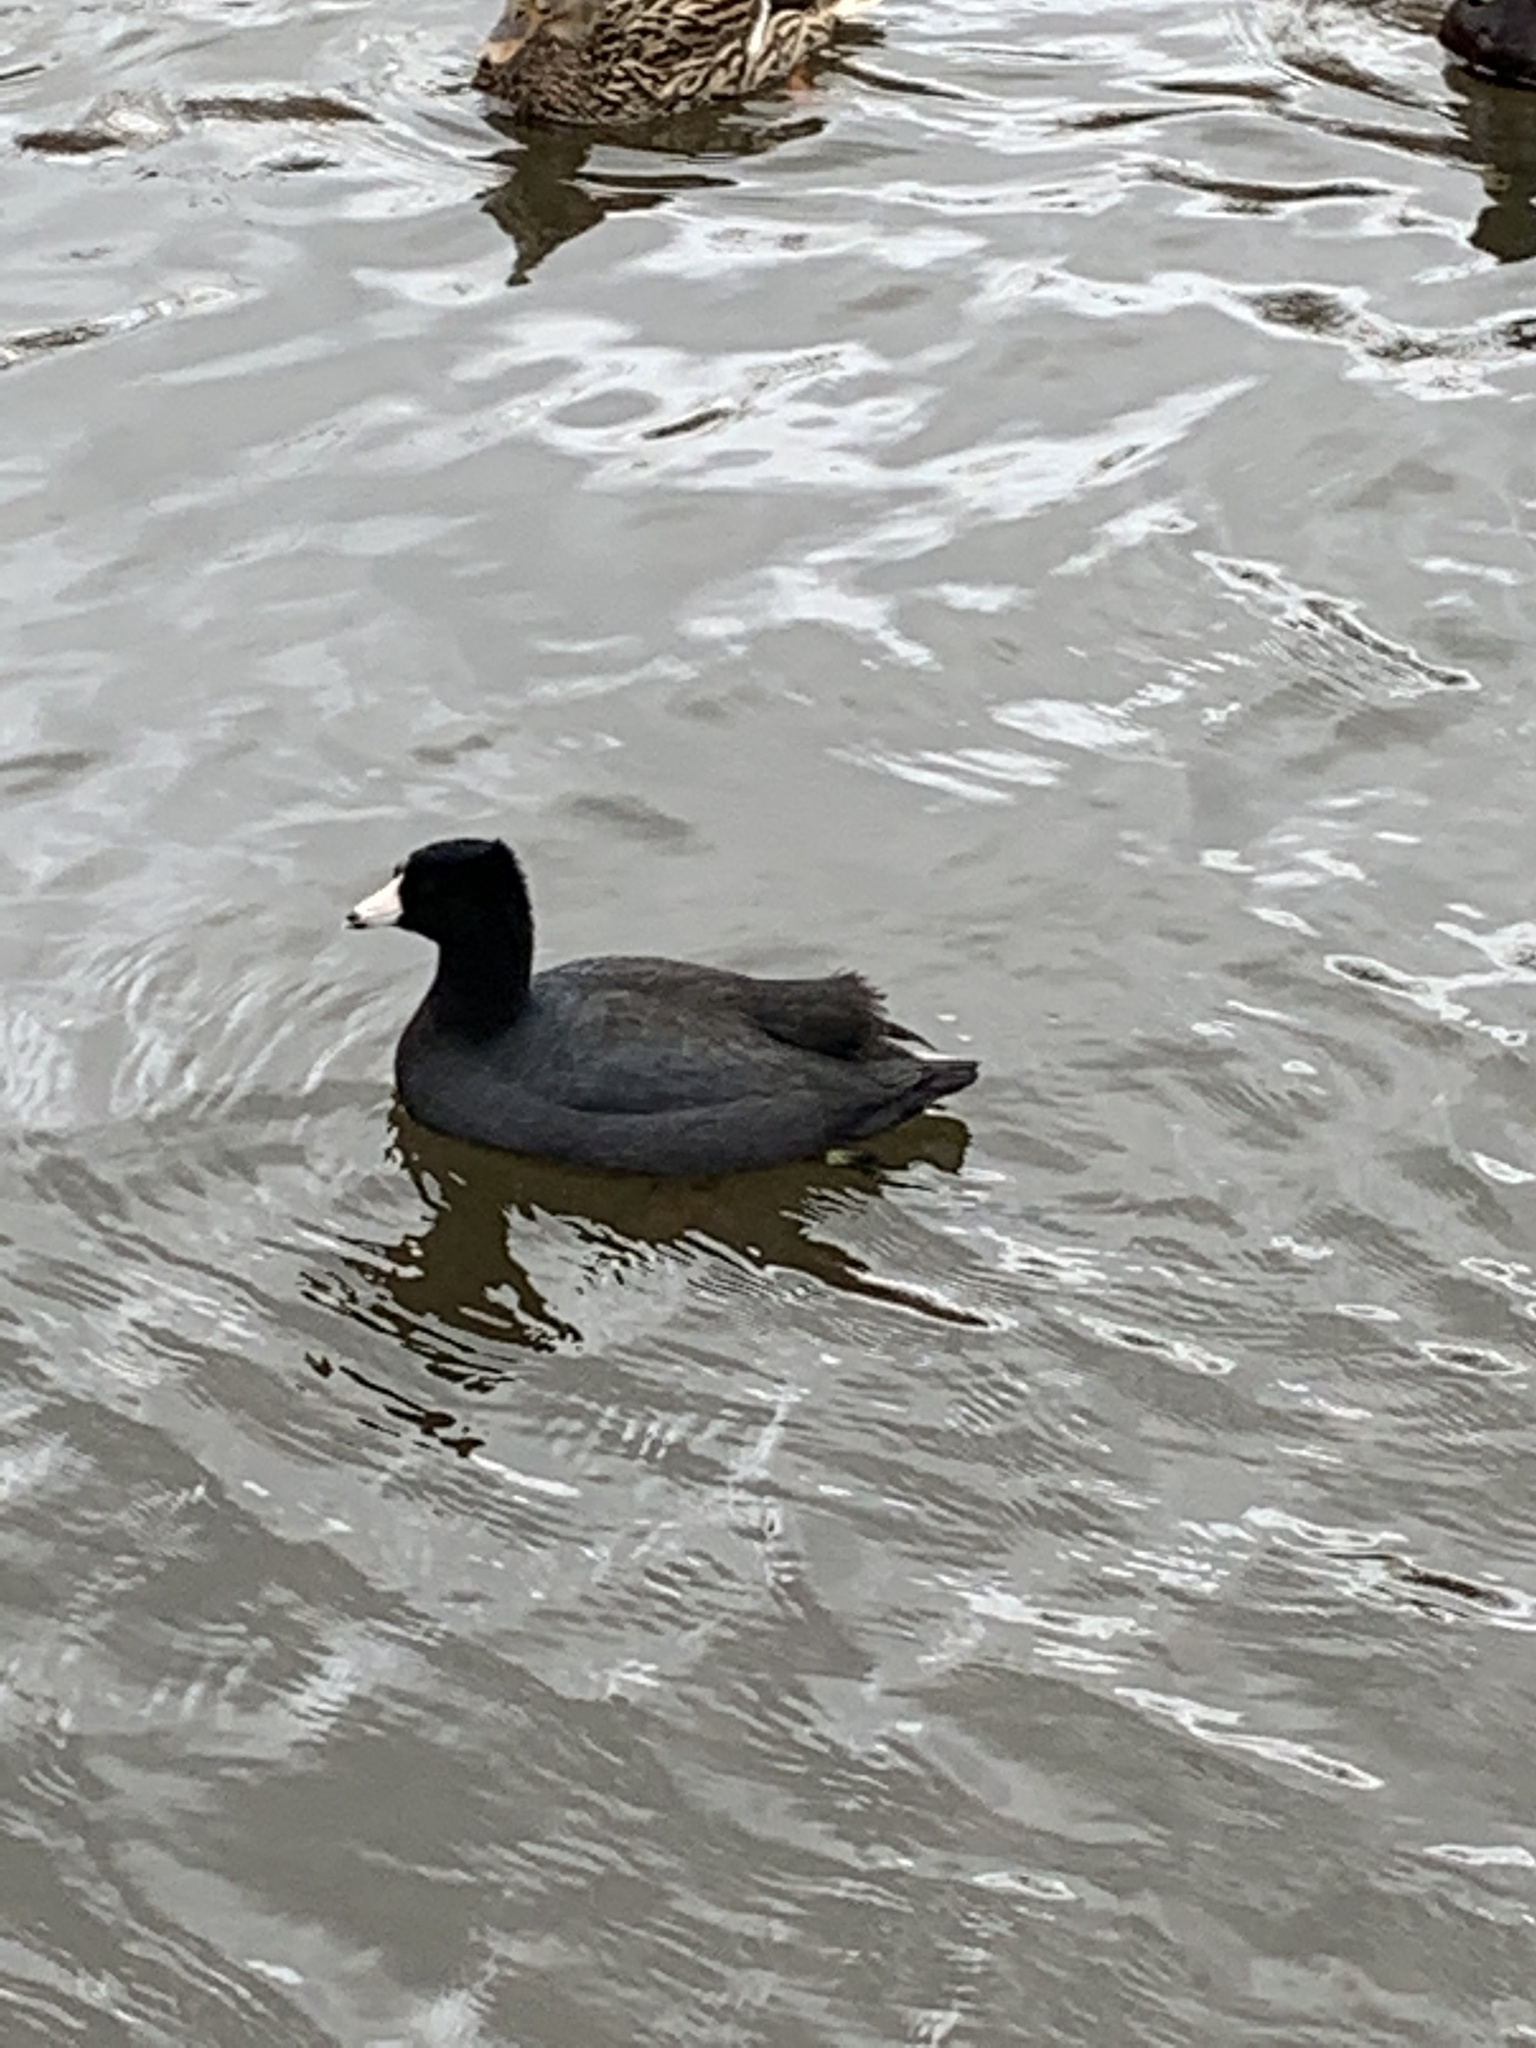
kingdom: Animalia
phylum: Chordata
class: Aves
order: Gruiformes
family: Rallidae
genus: Fulica
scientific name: Fulica americana
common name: American coot
